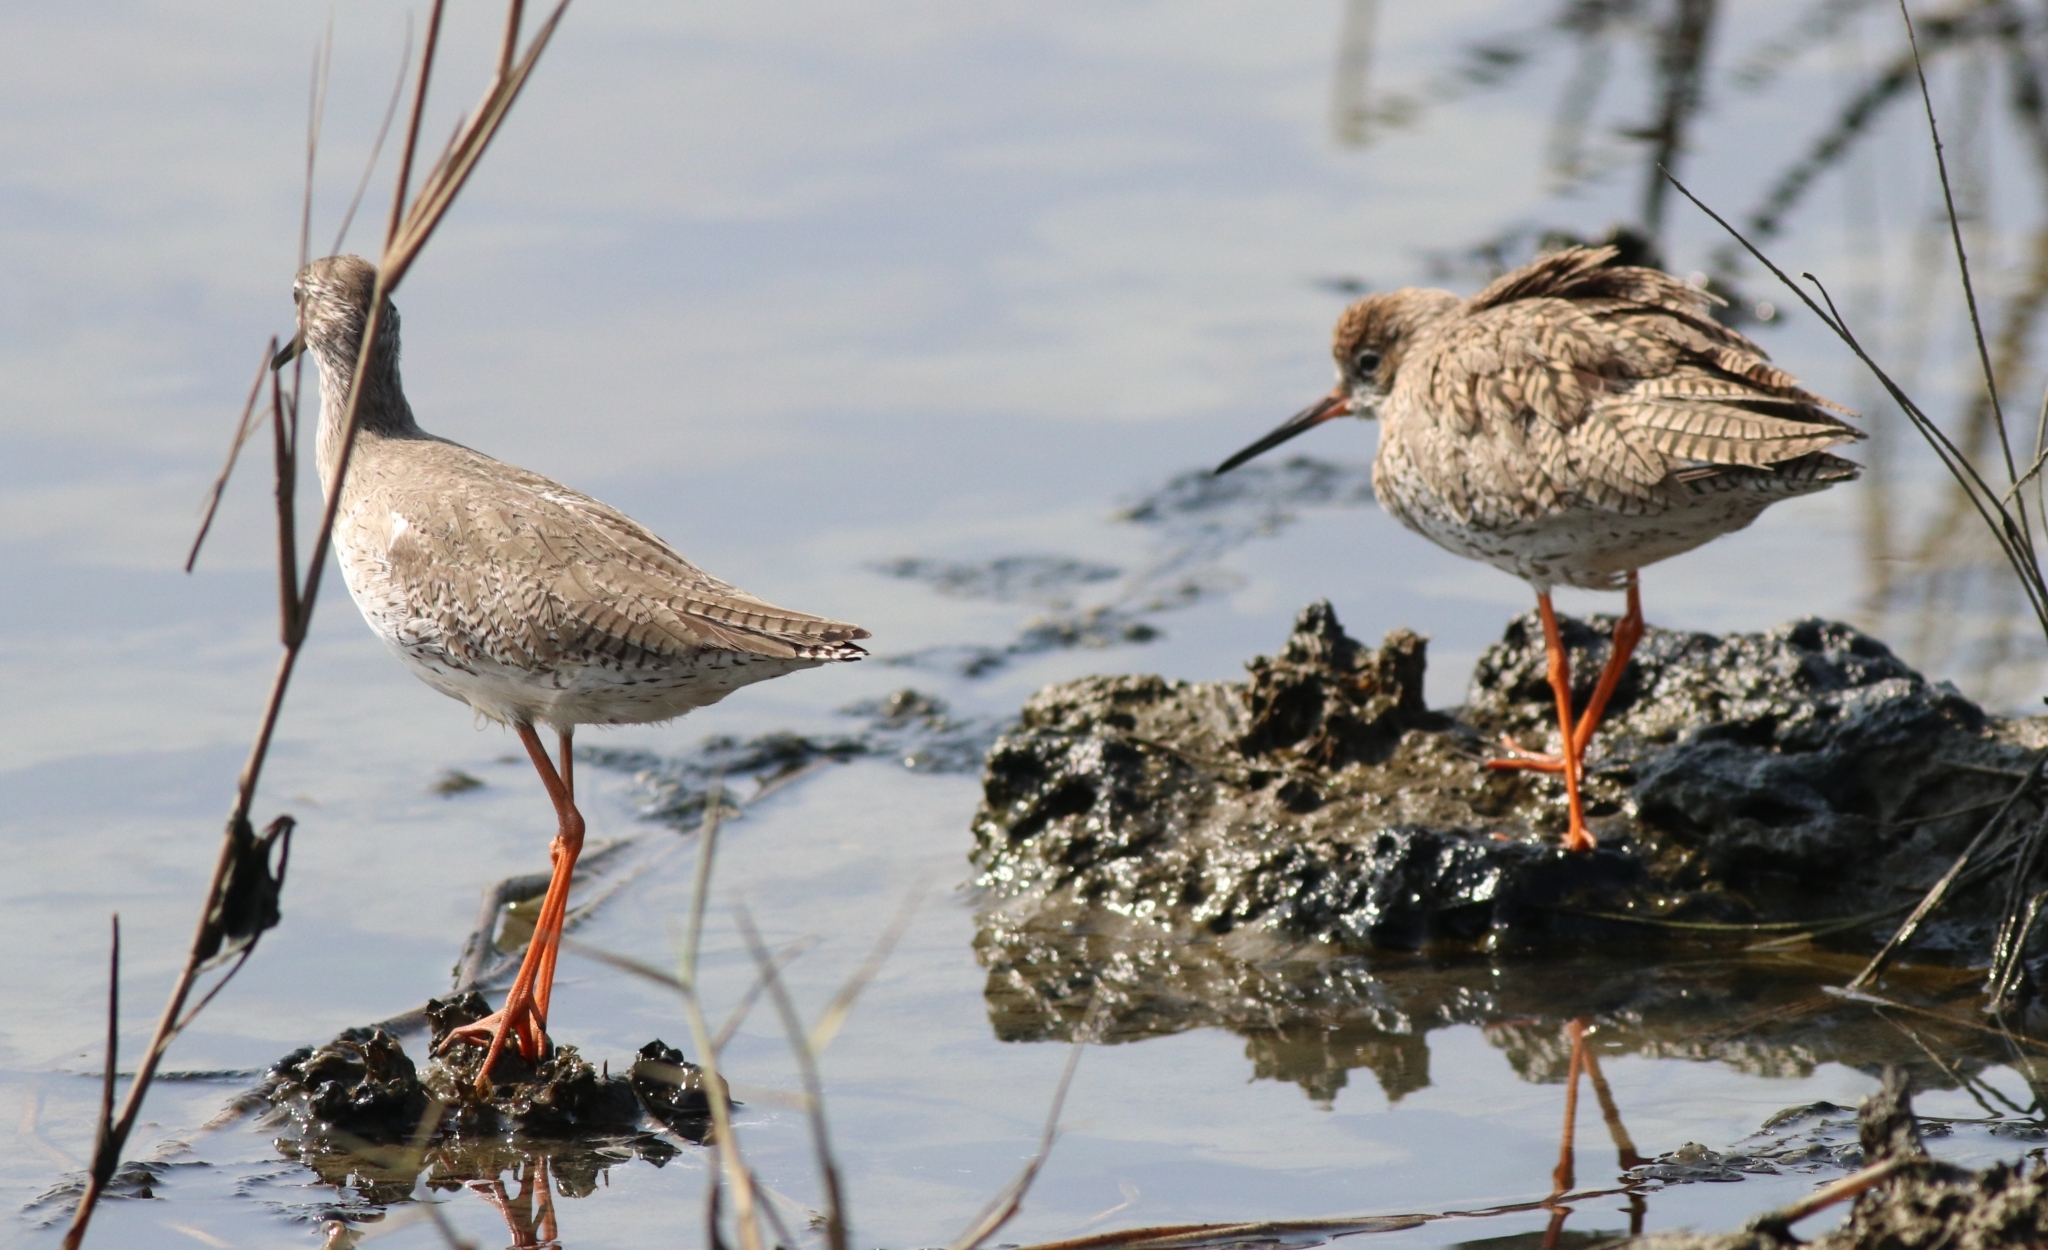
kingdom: Animalia
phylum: Chordata
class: Aves
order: Charadriiformes
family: Scolopacidae
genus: Tringa
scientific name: Tringa totanus
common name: Common redshank
